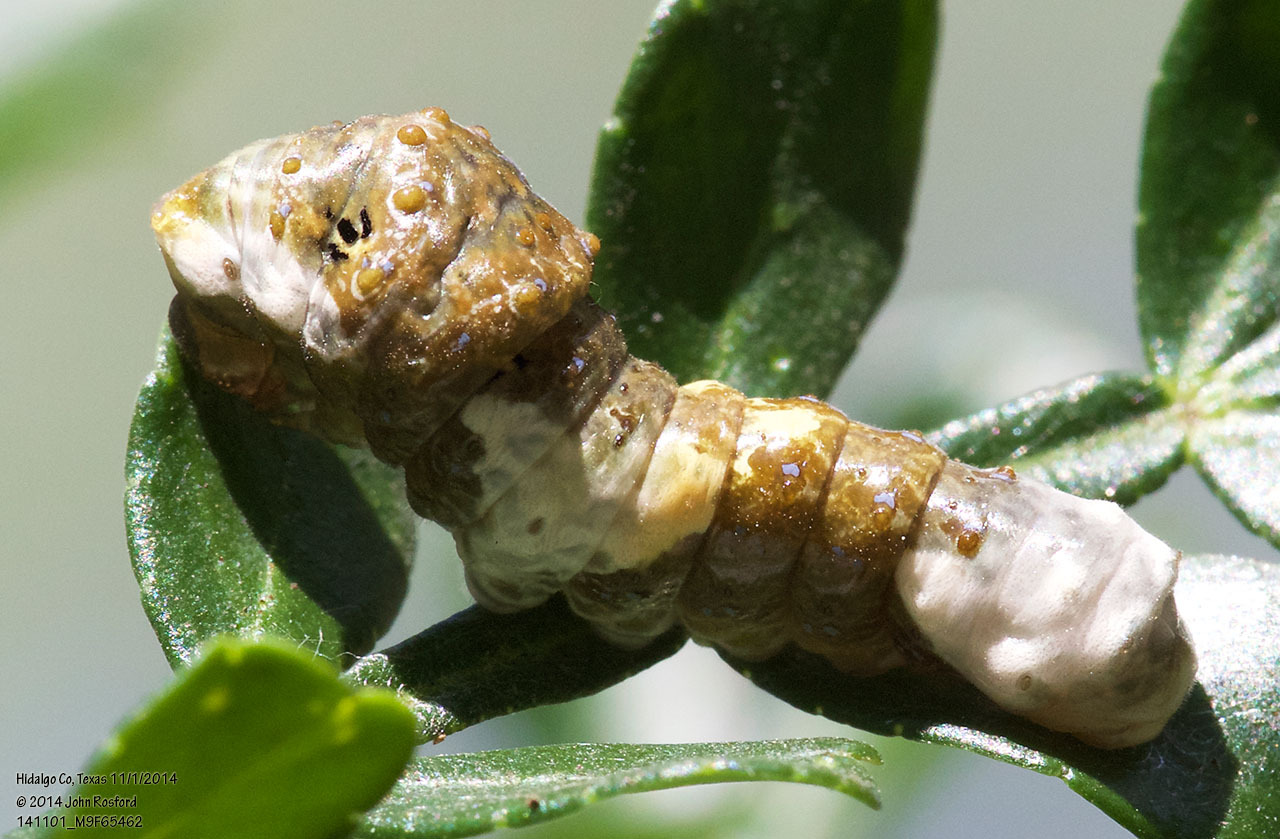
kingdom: Animalia
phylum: Arthropoda
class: Insecta
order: Lepidoptera
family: Papilionidae
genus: Papilio
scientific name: Papilio rumiko
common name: Western giant swallowtail
